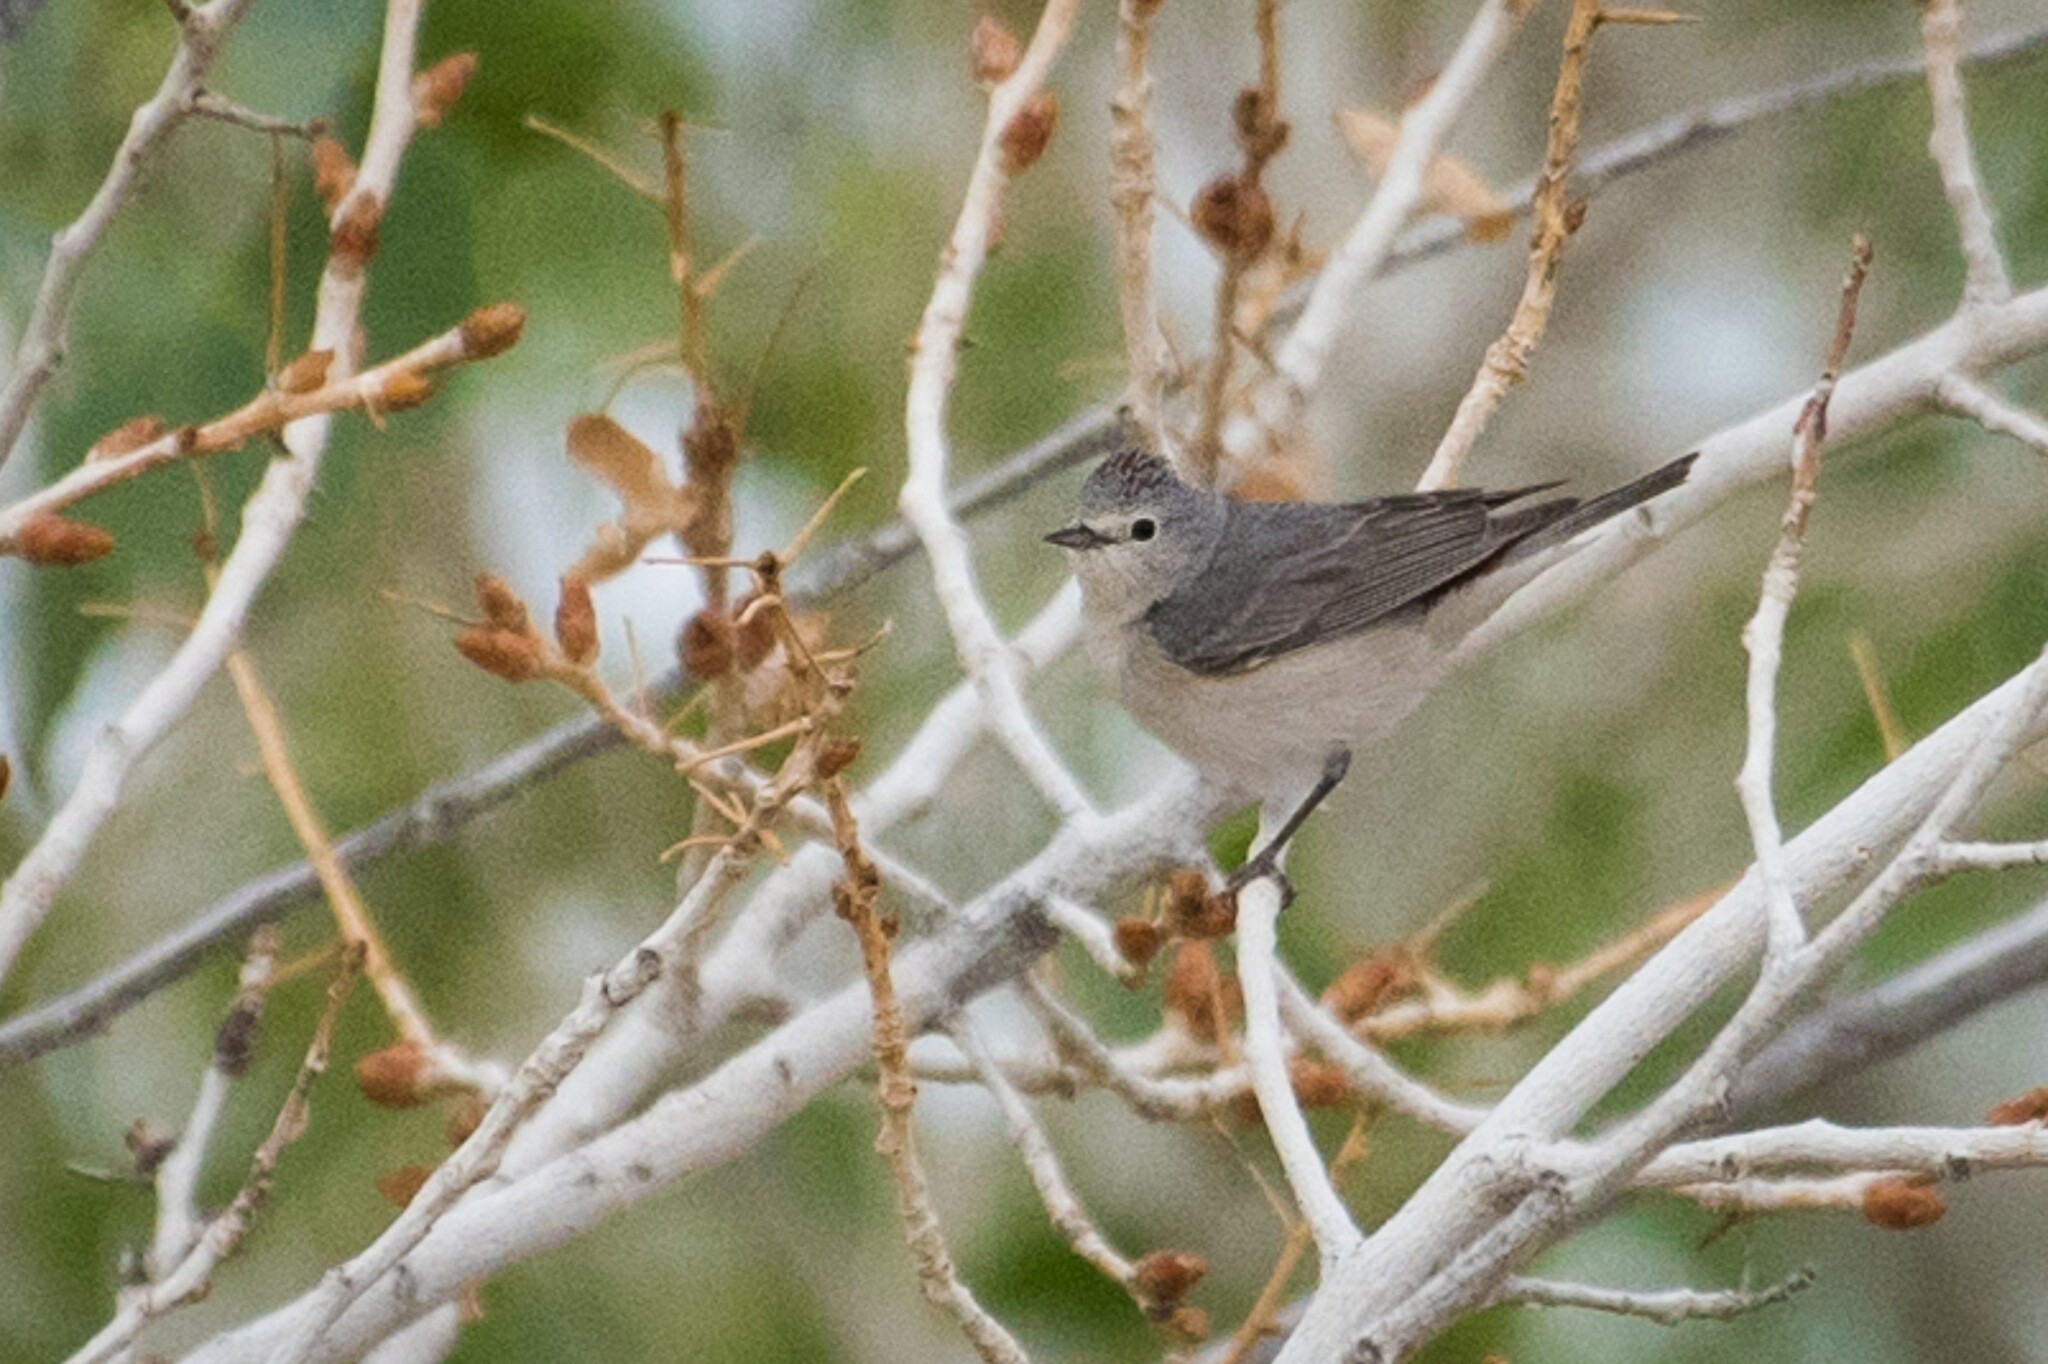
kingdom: Animalia
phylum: Chordata
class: Aves
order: Passeriformes
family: Parulidae
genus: Leiothlypis
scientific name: Leiothlypis luciae
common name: Lucy's warbler
